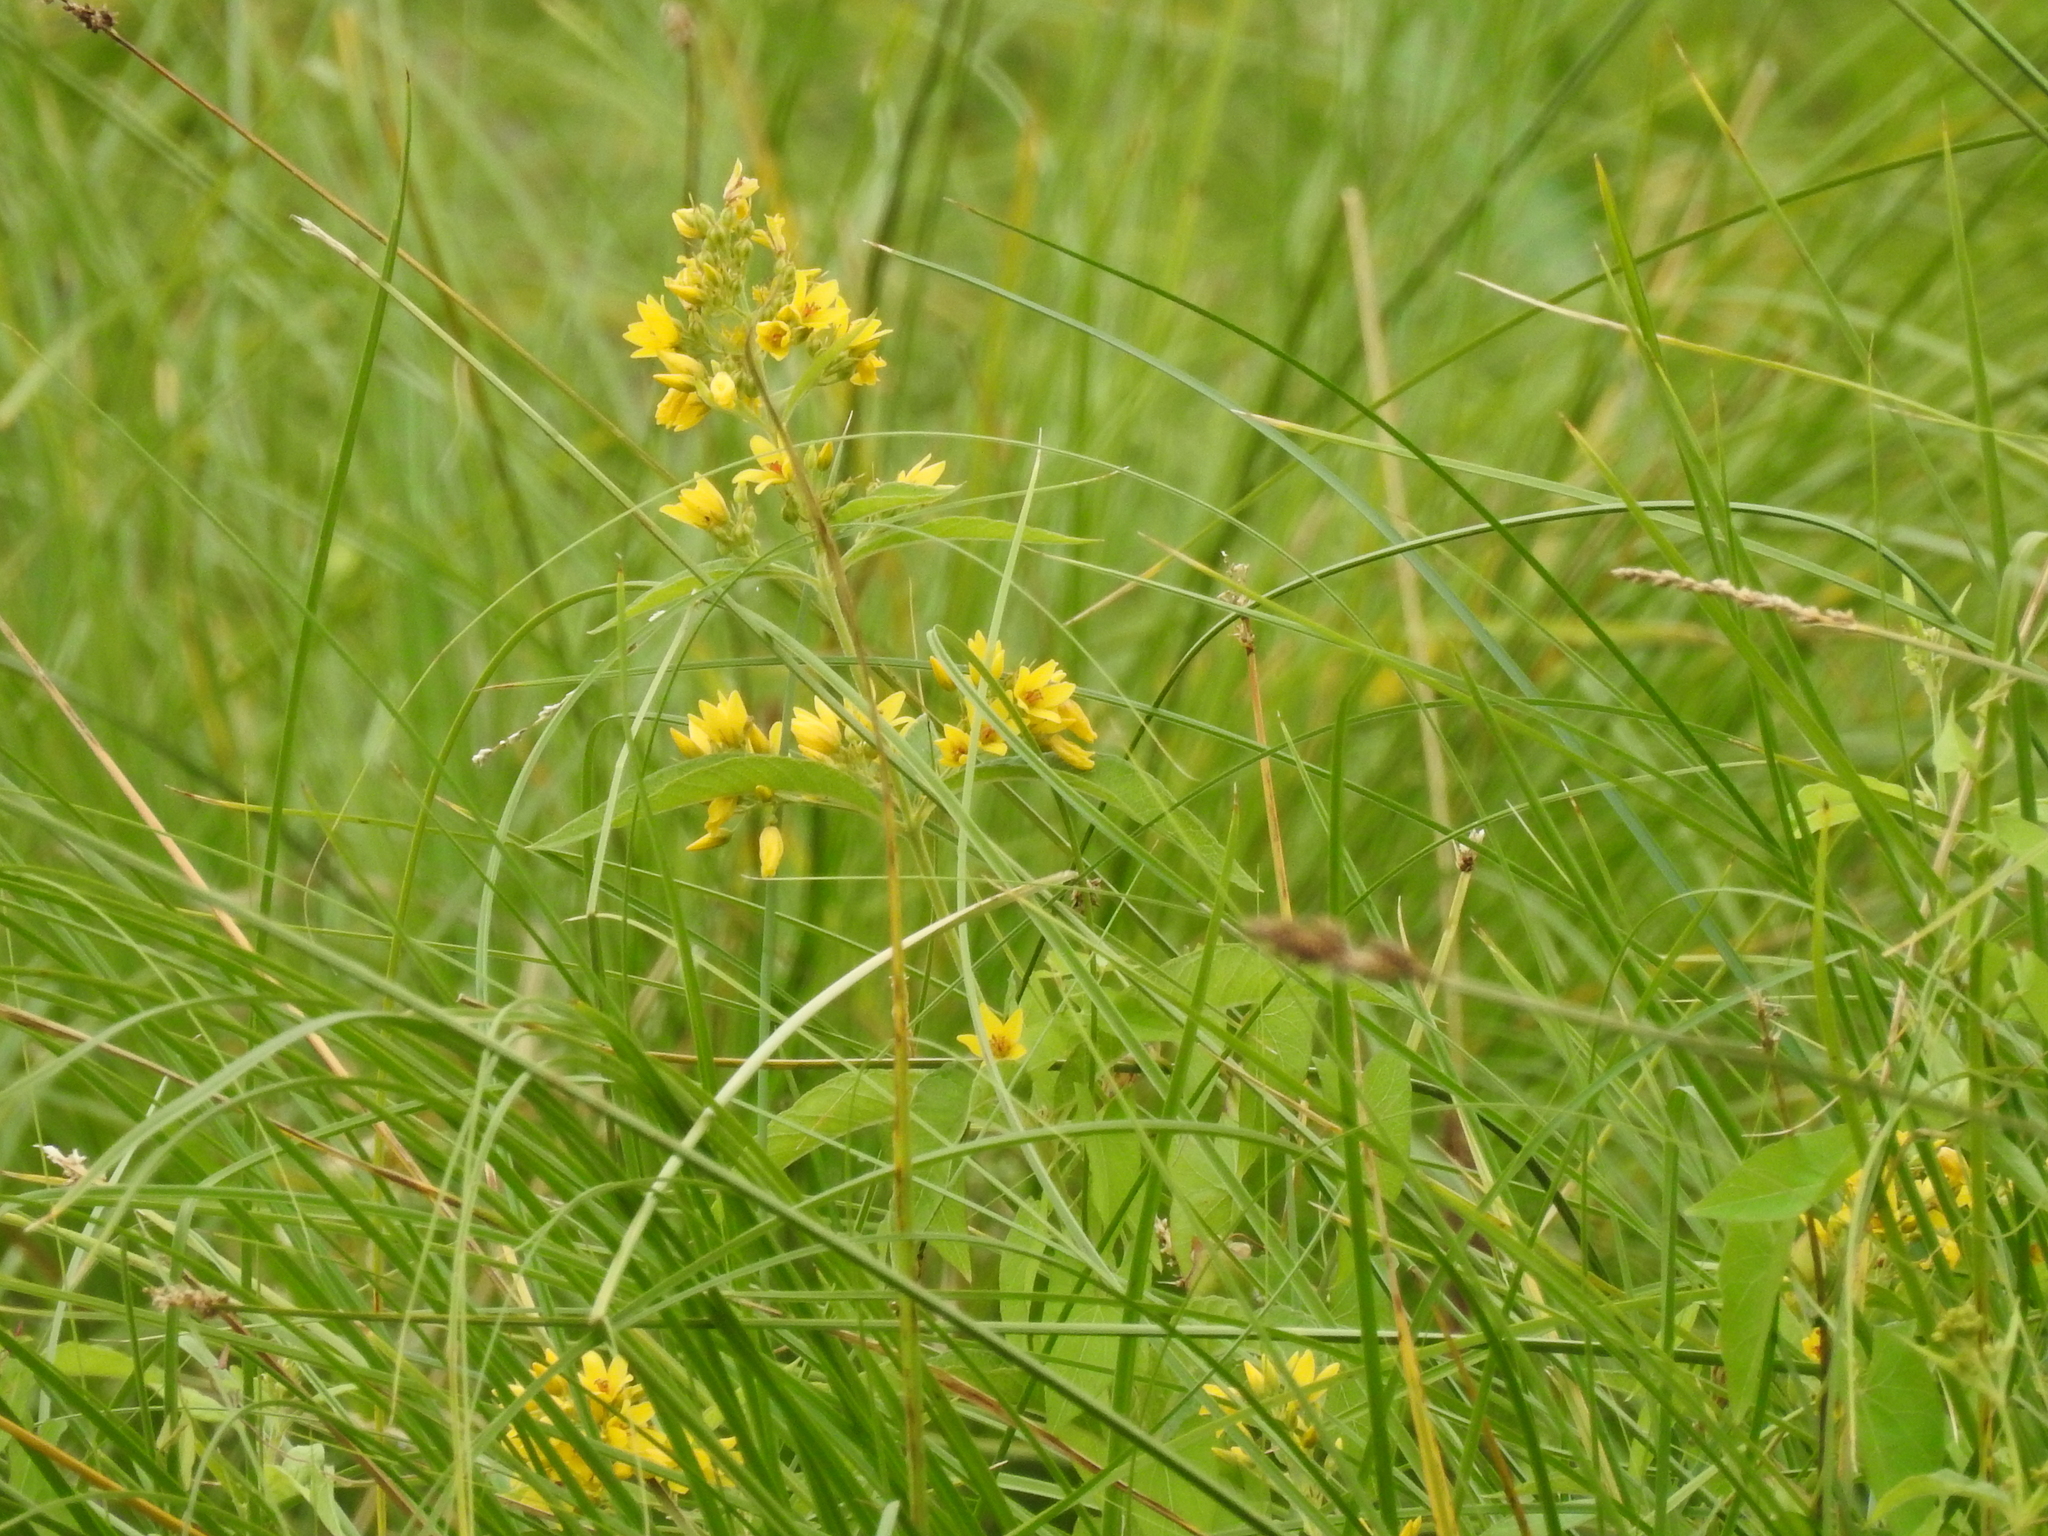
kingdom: Plantae
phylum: Tracheophyta
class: Magnoliopsida
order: Ericales
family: Primulaceae
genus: Lysimachia
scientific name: Lysimachia vulgaris
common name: Yellow loosestrife
